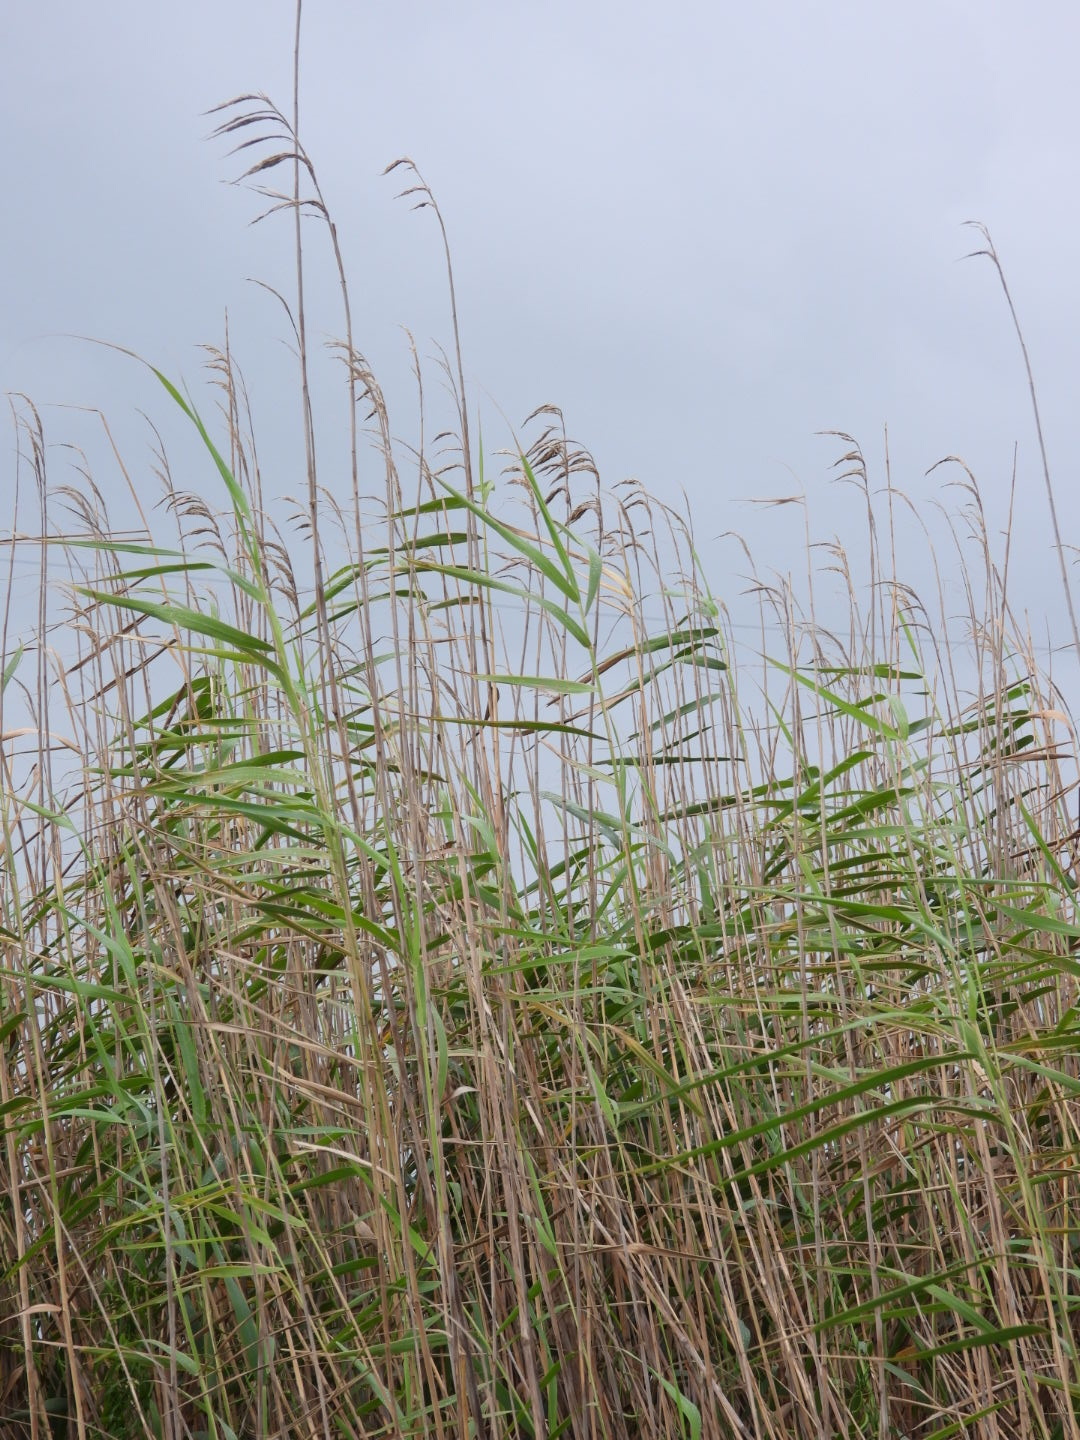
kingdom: Plantae
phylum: Tracheophyta
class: Liliopsida
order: Poales
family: Poaceae
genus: Phragmites
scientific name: Phragmites australis
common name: Common reed
